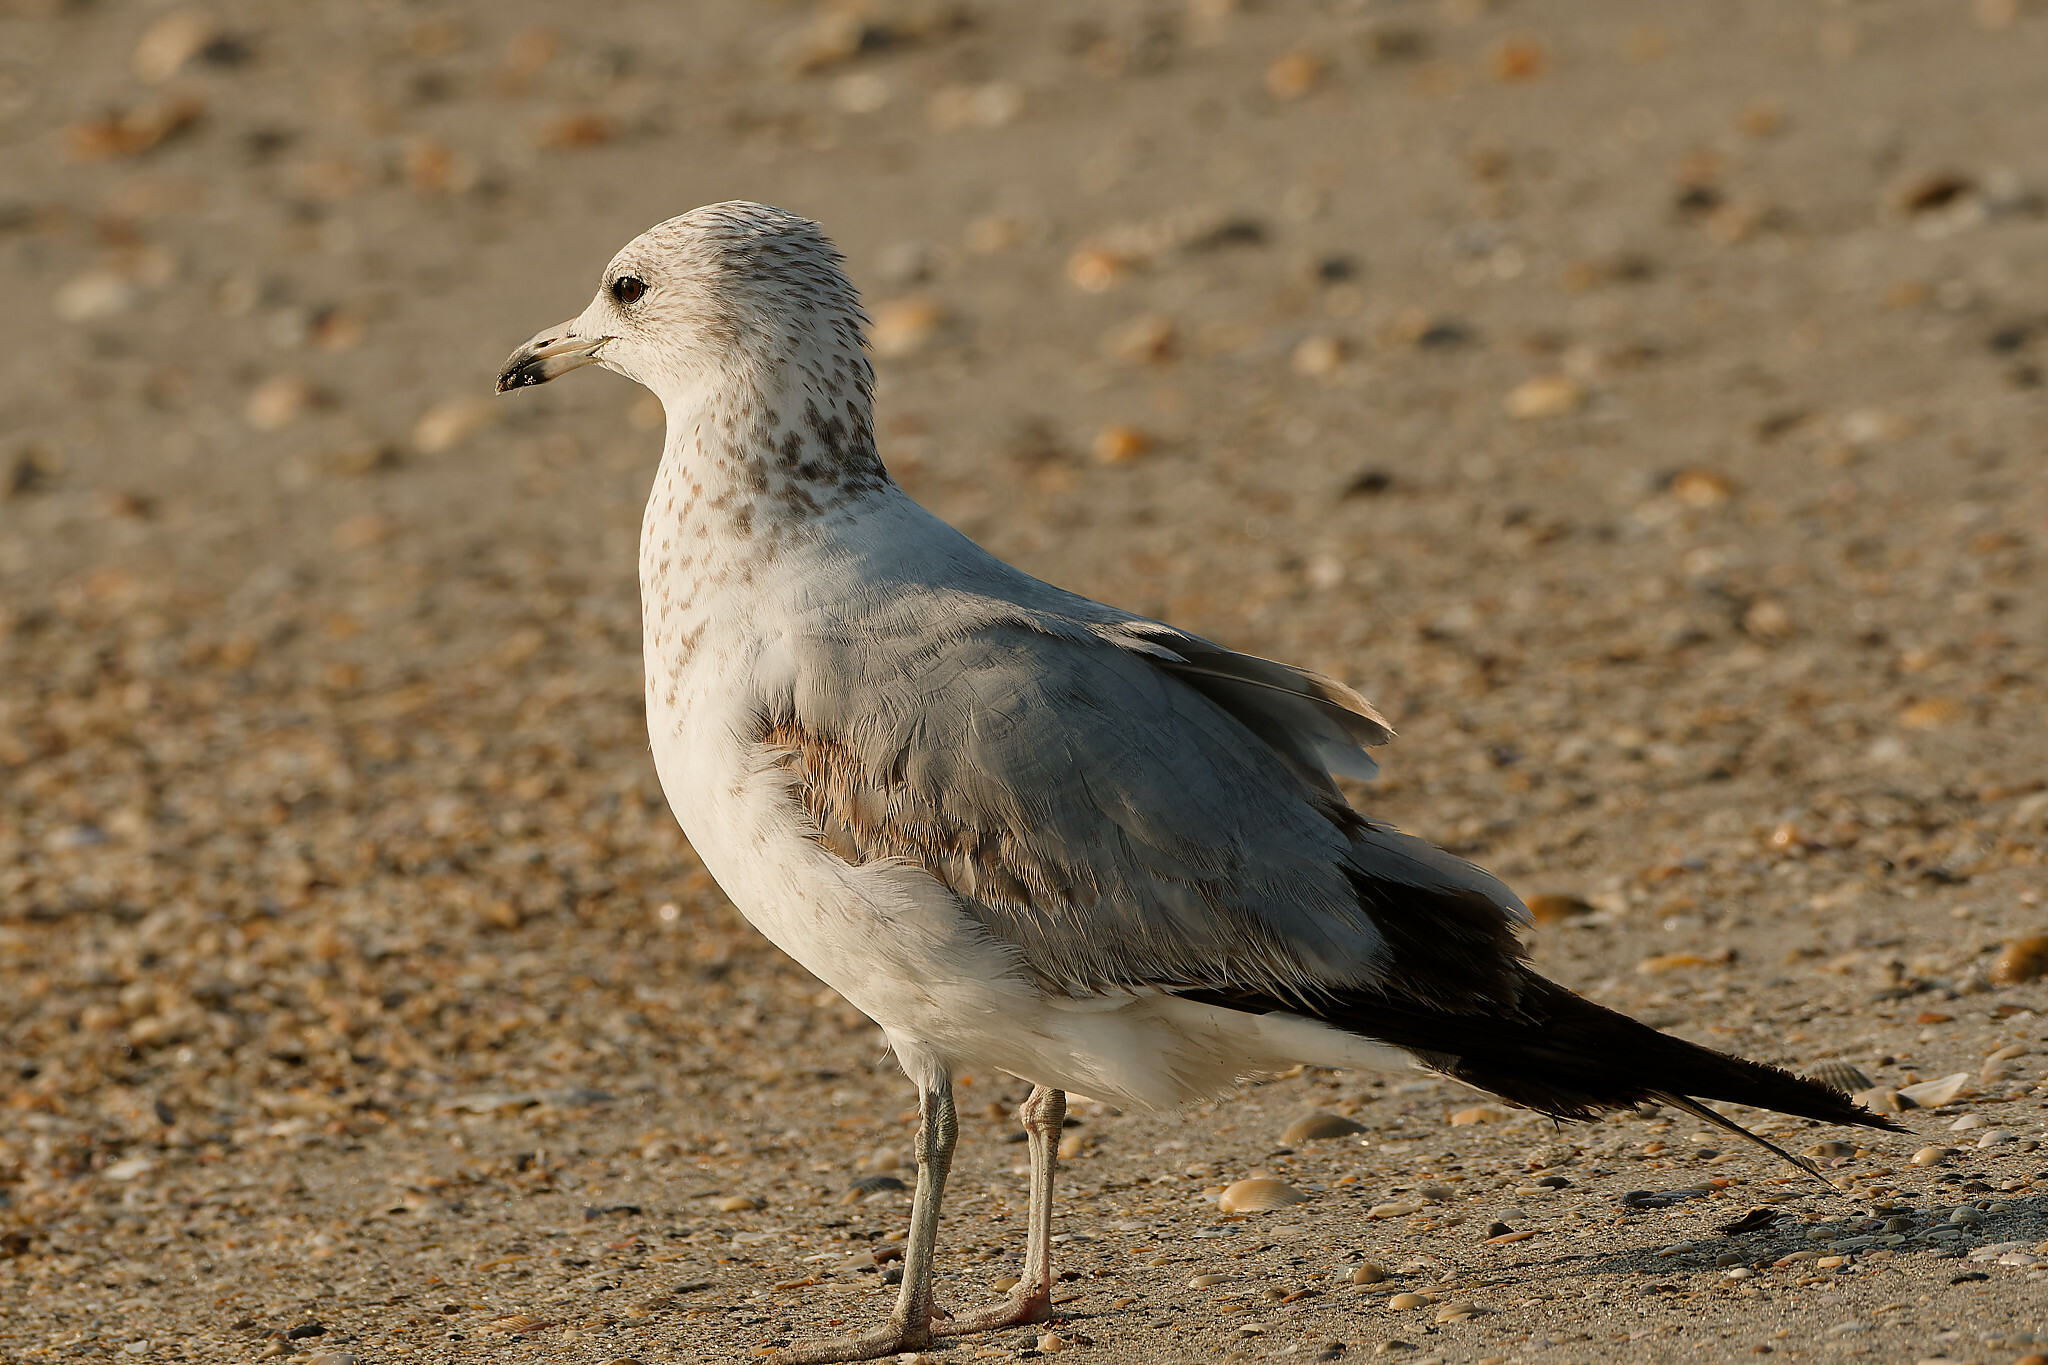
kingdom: Animalia
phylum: Chordata
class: Aves
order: Charadriiformes
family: Laridae
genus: Larus
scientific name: Larus delawarensis
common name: Ring-billed gull
